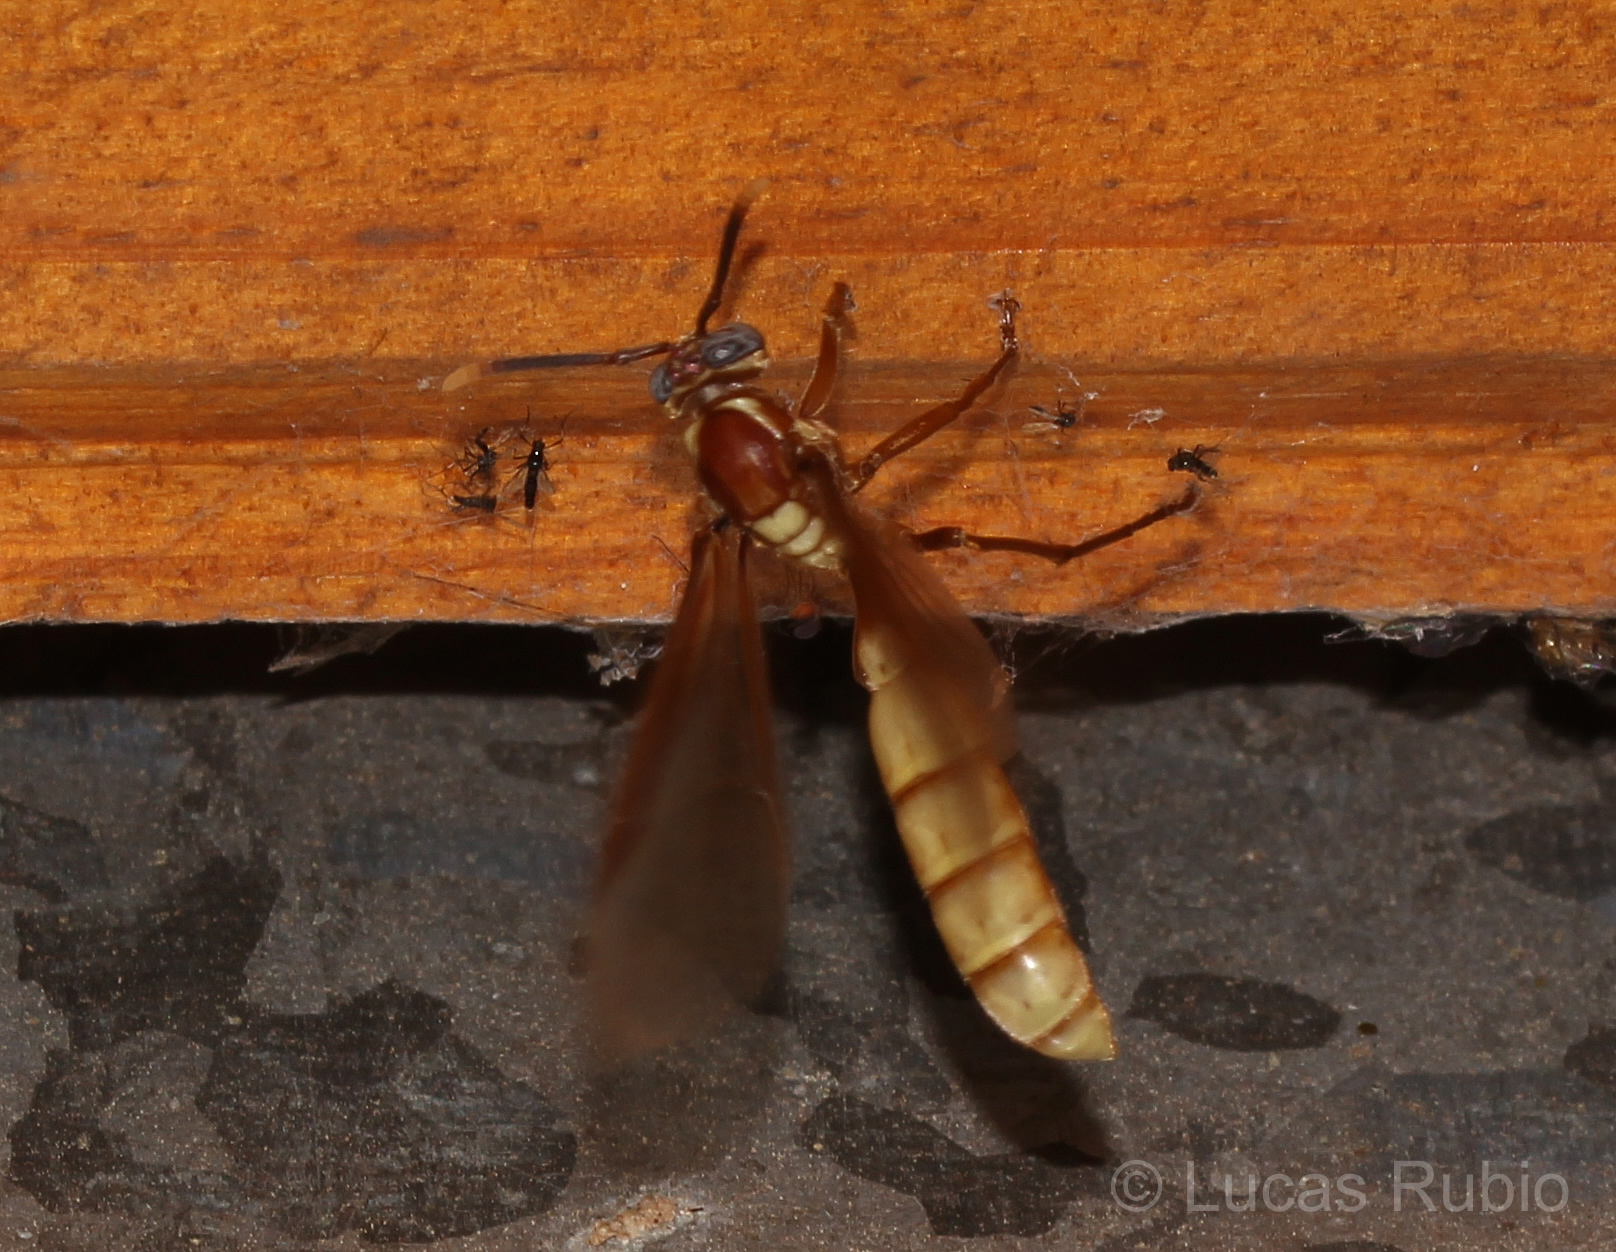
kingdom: Animalia
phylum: Arthropoda
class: Insecta
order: Hymenoptera
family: Vespidae
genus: Apoica
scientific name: Apoica gelida
